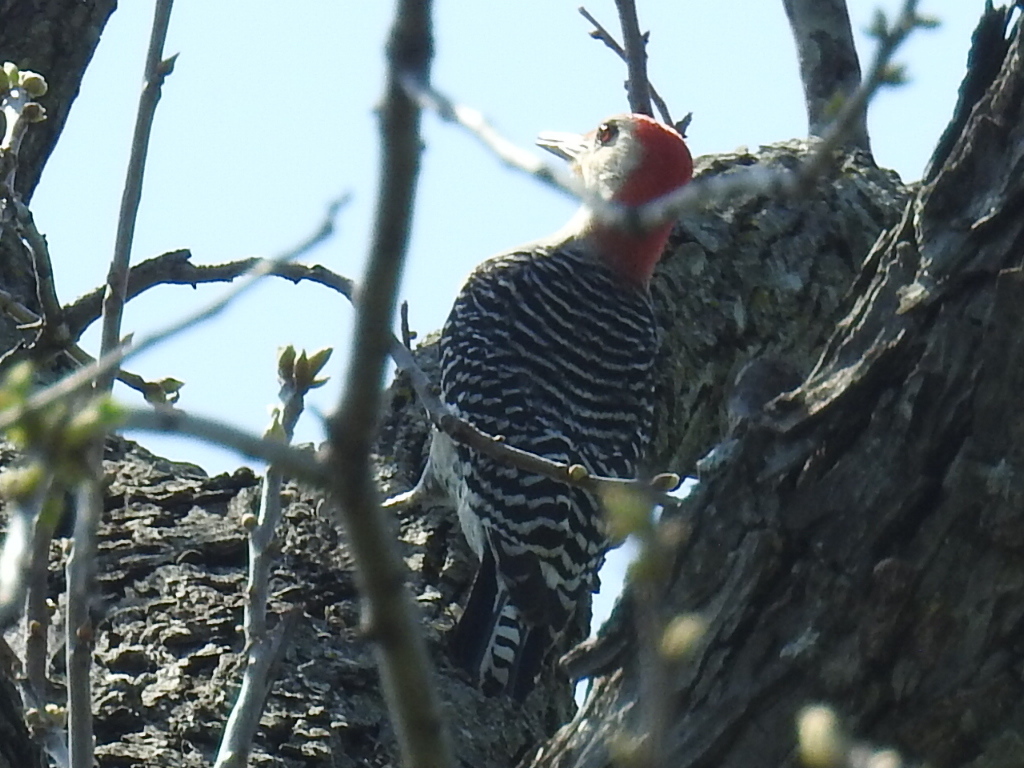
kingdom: Animalia
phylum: Chordata
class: Aves
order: Piciformes
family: Picidae
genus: Melanerpes
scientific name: Melanerpes carolinus
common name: Red-bellied woodpecker
